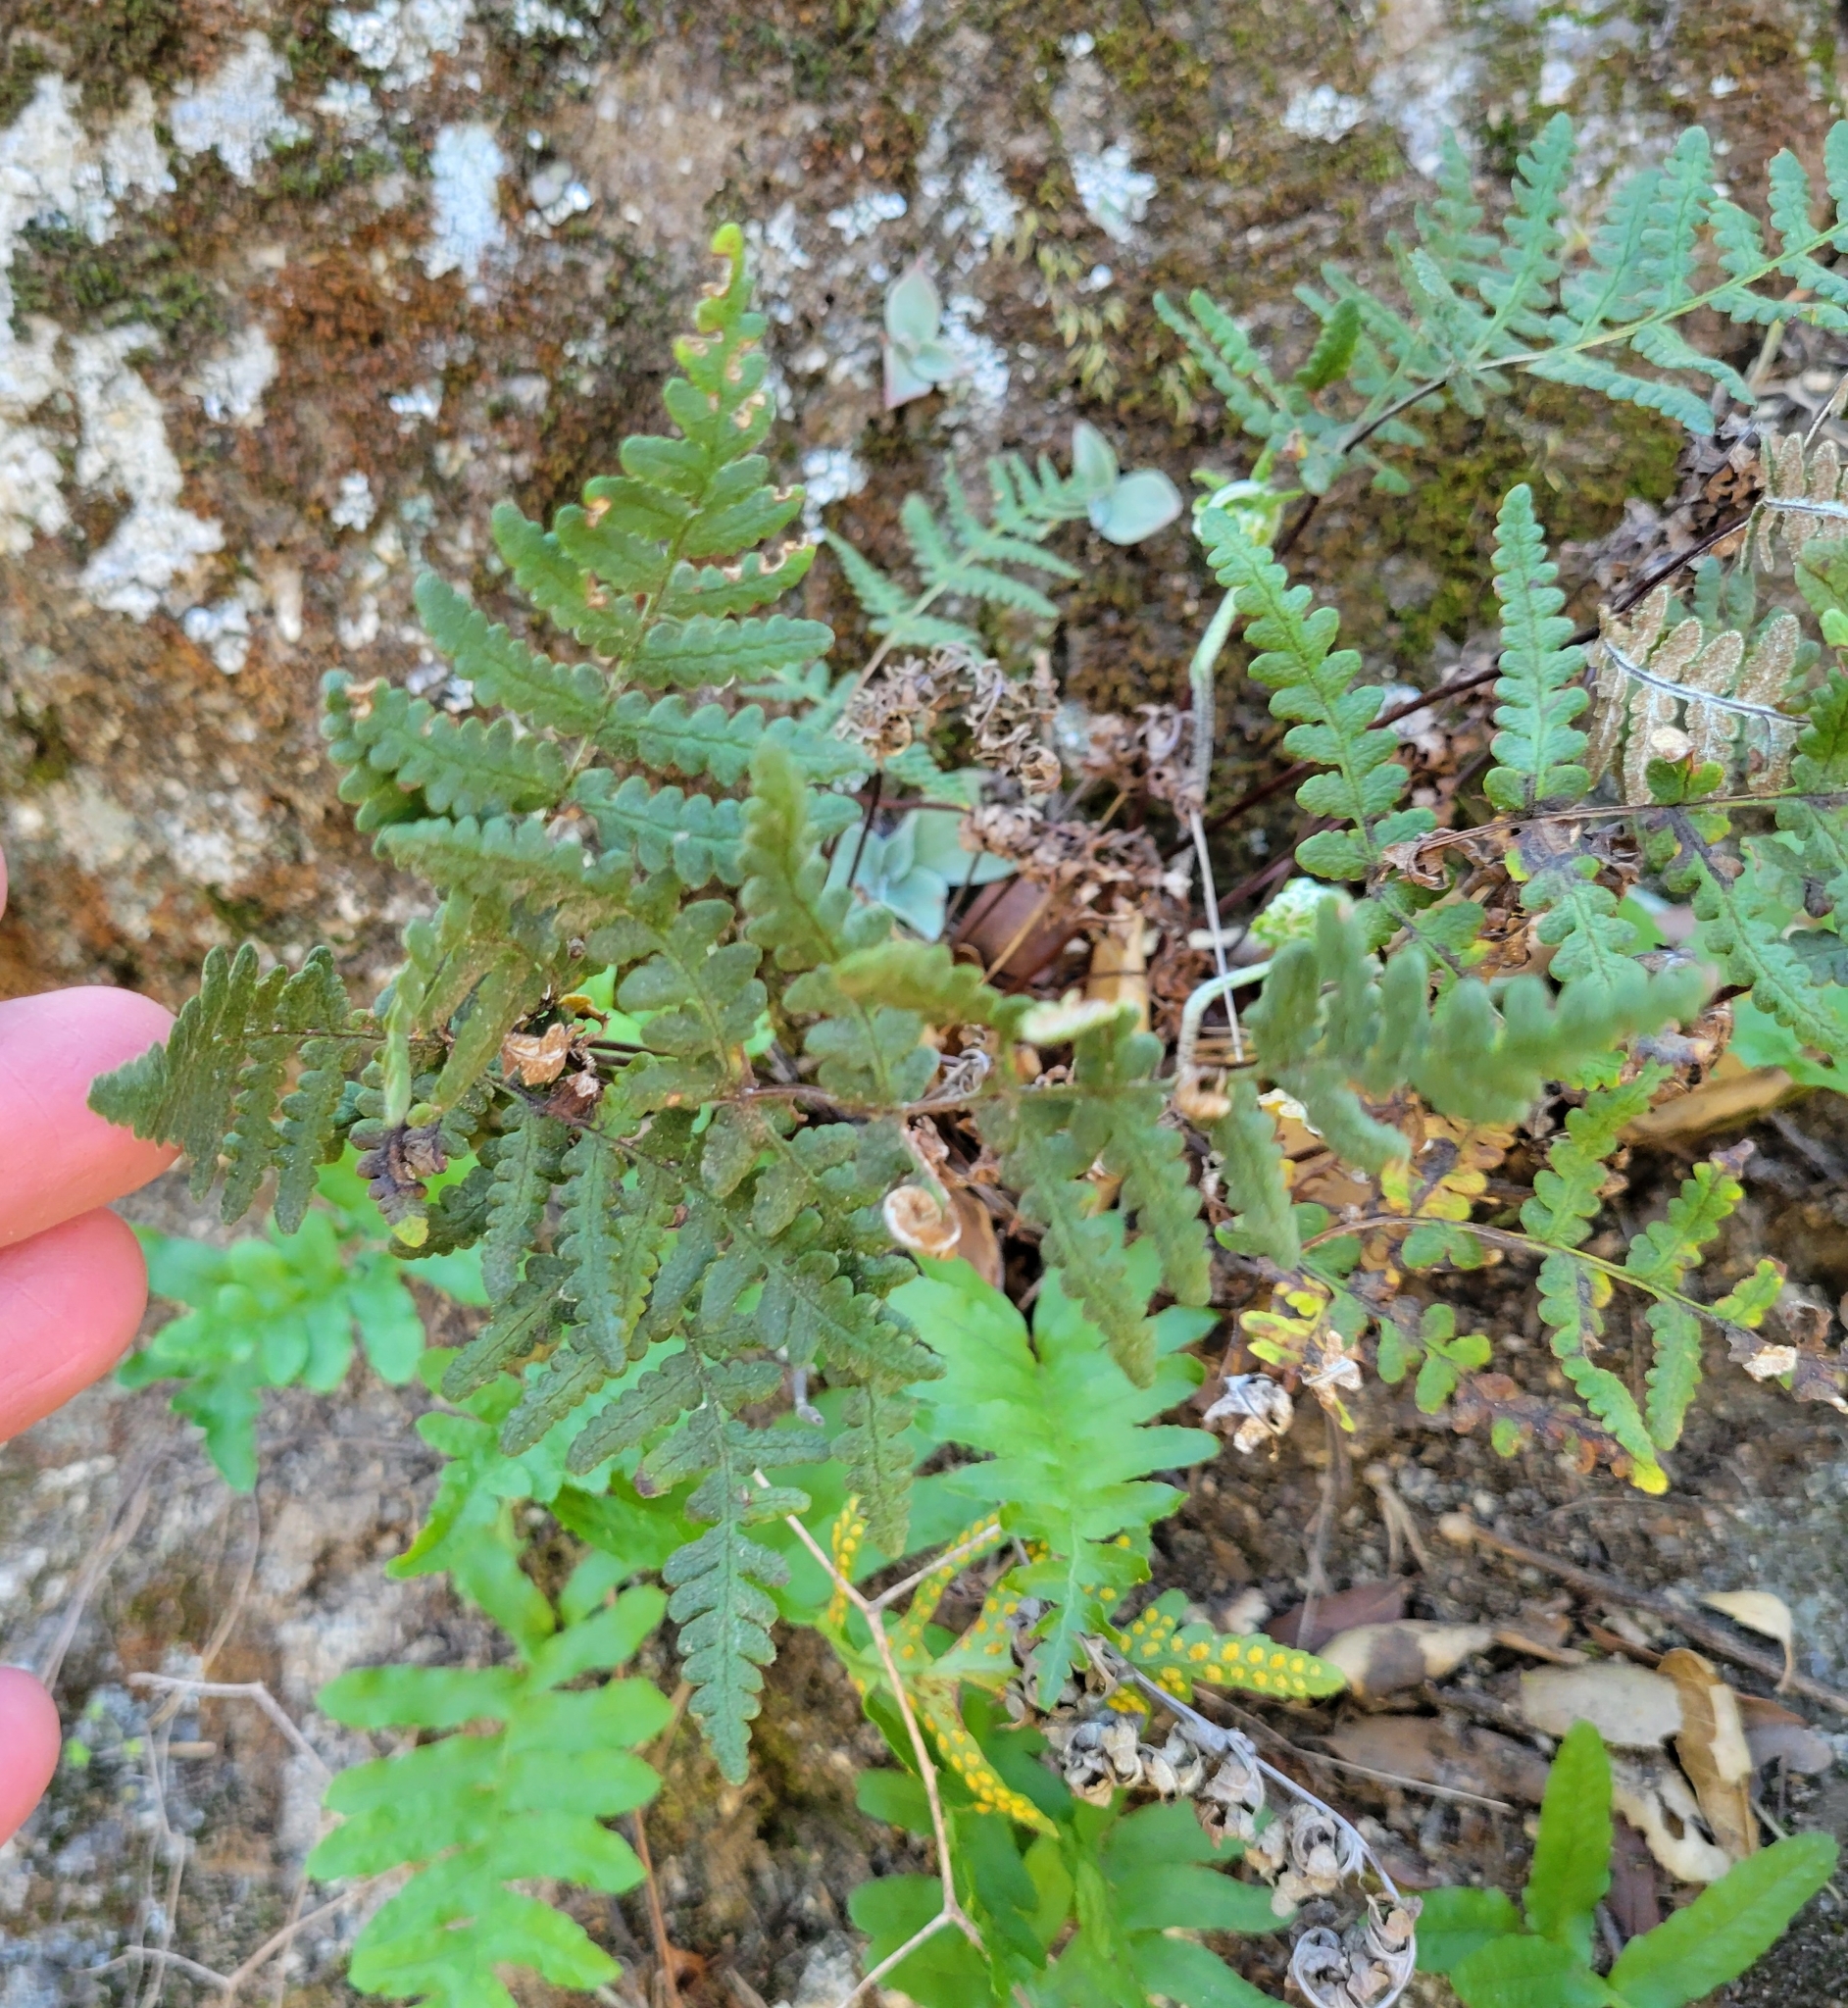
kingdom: Plantae
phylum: Tracheophyta
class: Polypodiopsida
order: Polypodiales
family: Pteridaceae
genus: Pentagramma
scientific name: Pentagramma glanduloviscida
